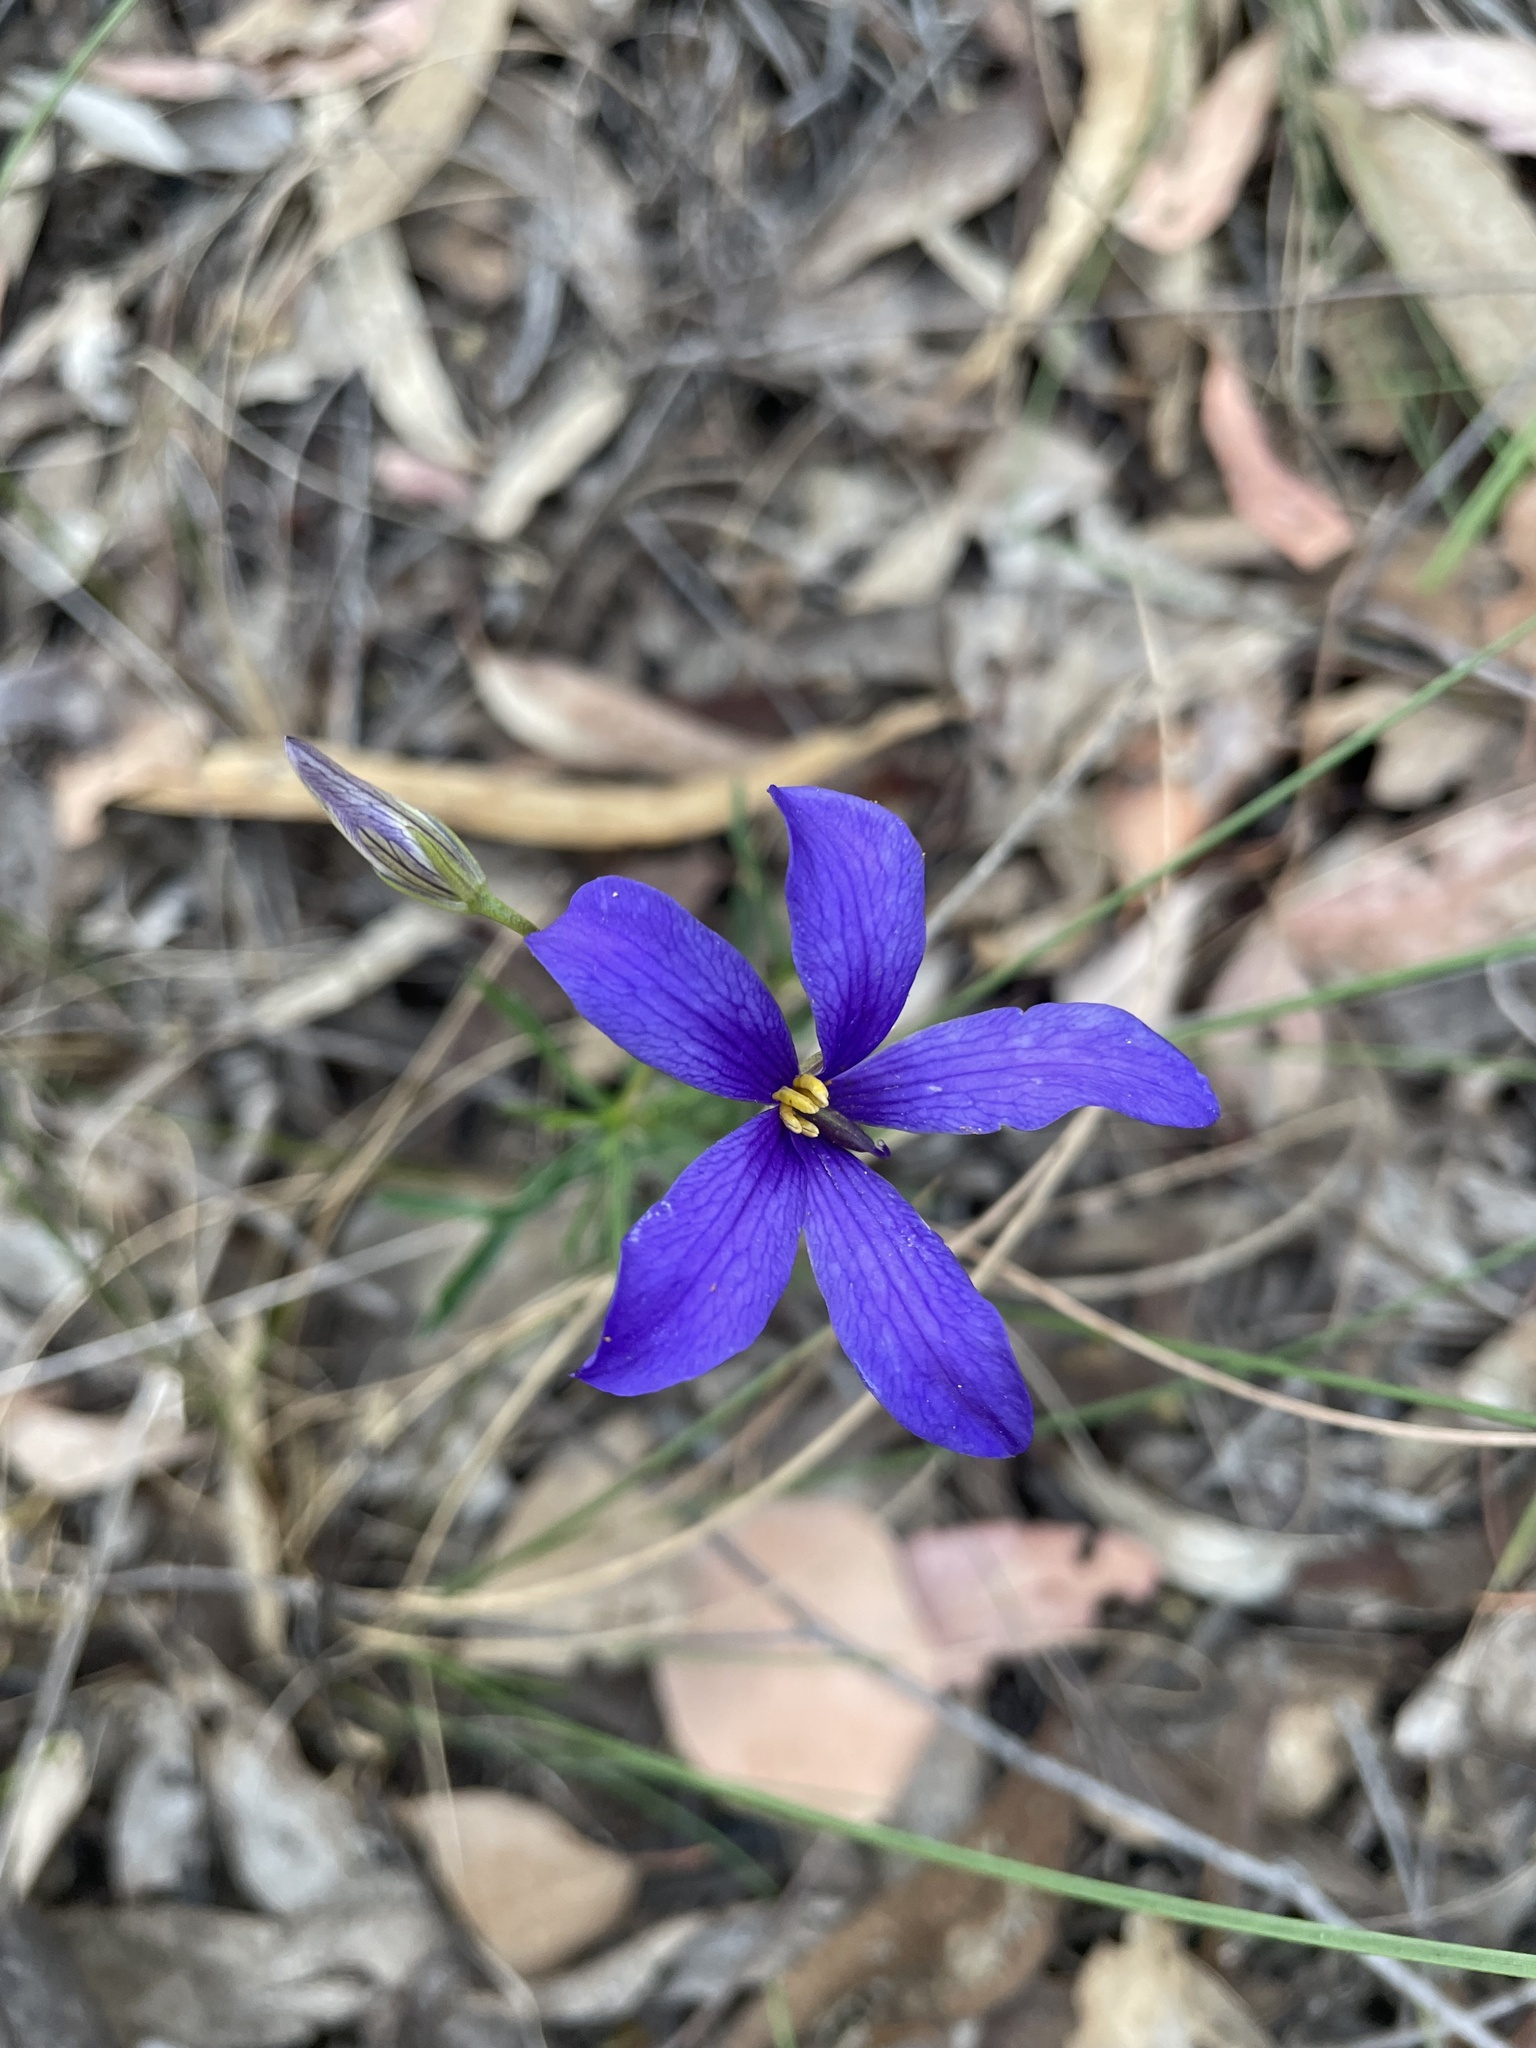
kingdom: Plantae
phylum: Tracheophyta
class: Magnoliopsida
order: Apiales
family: Pittosporaceae
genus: Cheiranthera
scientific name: Cheiranthera linearis
